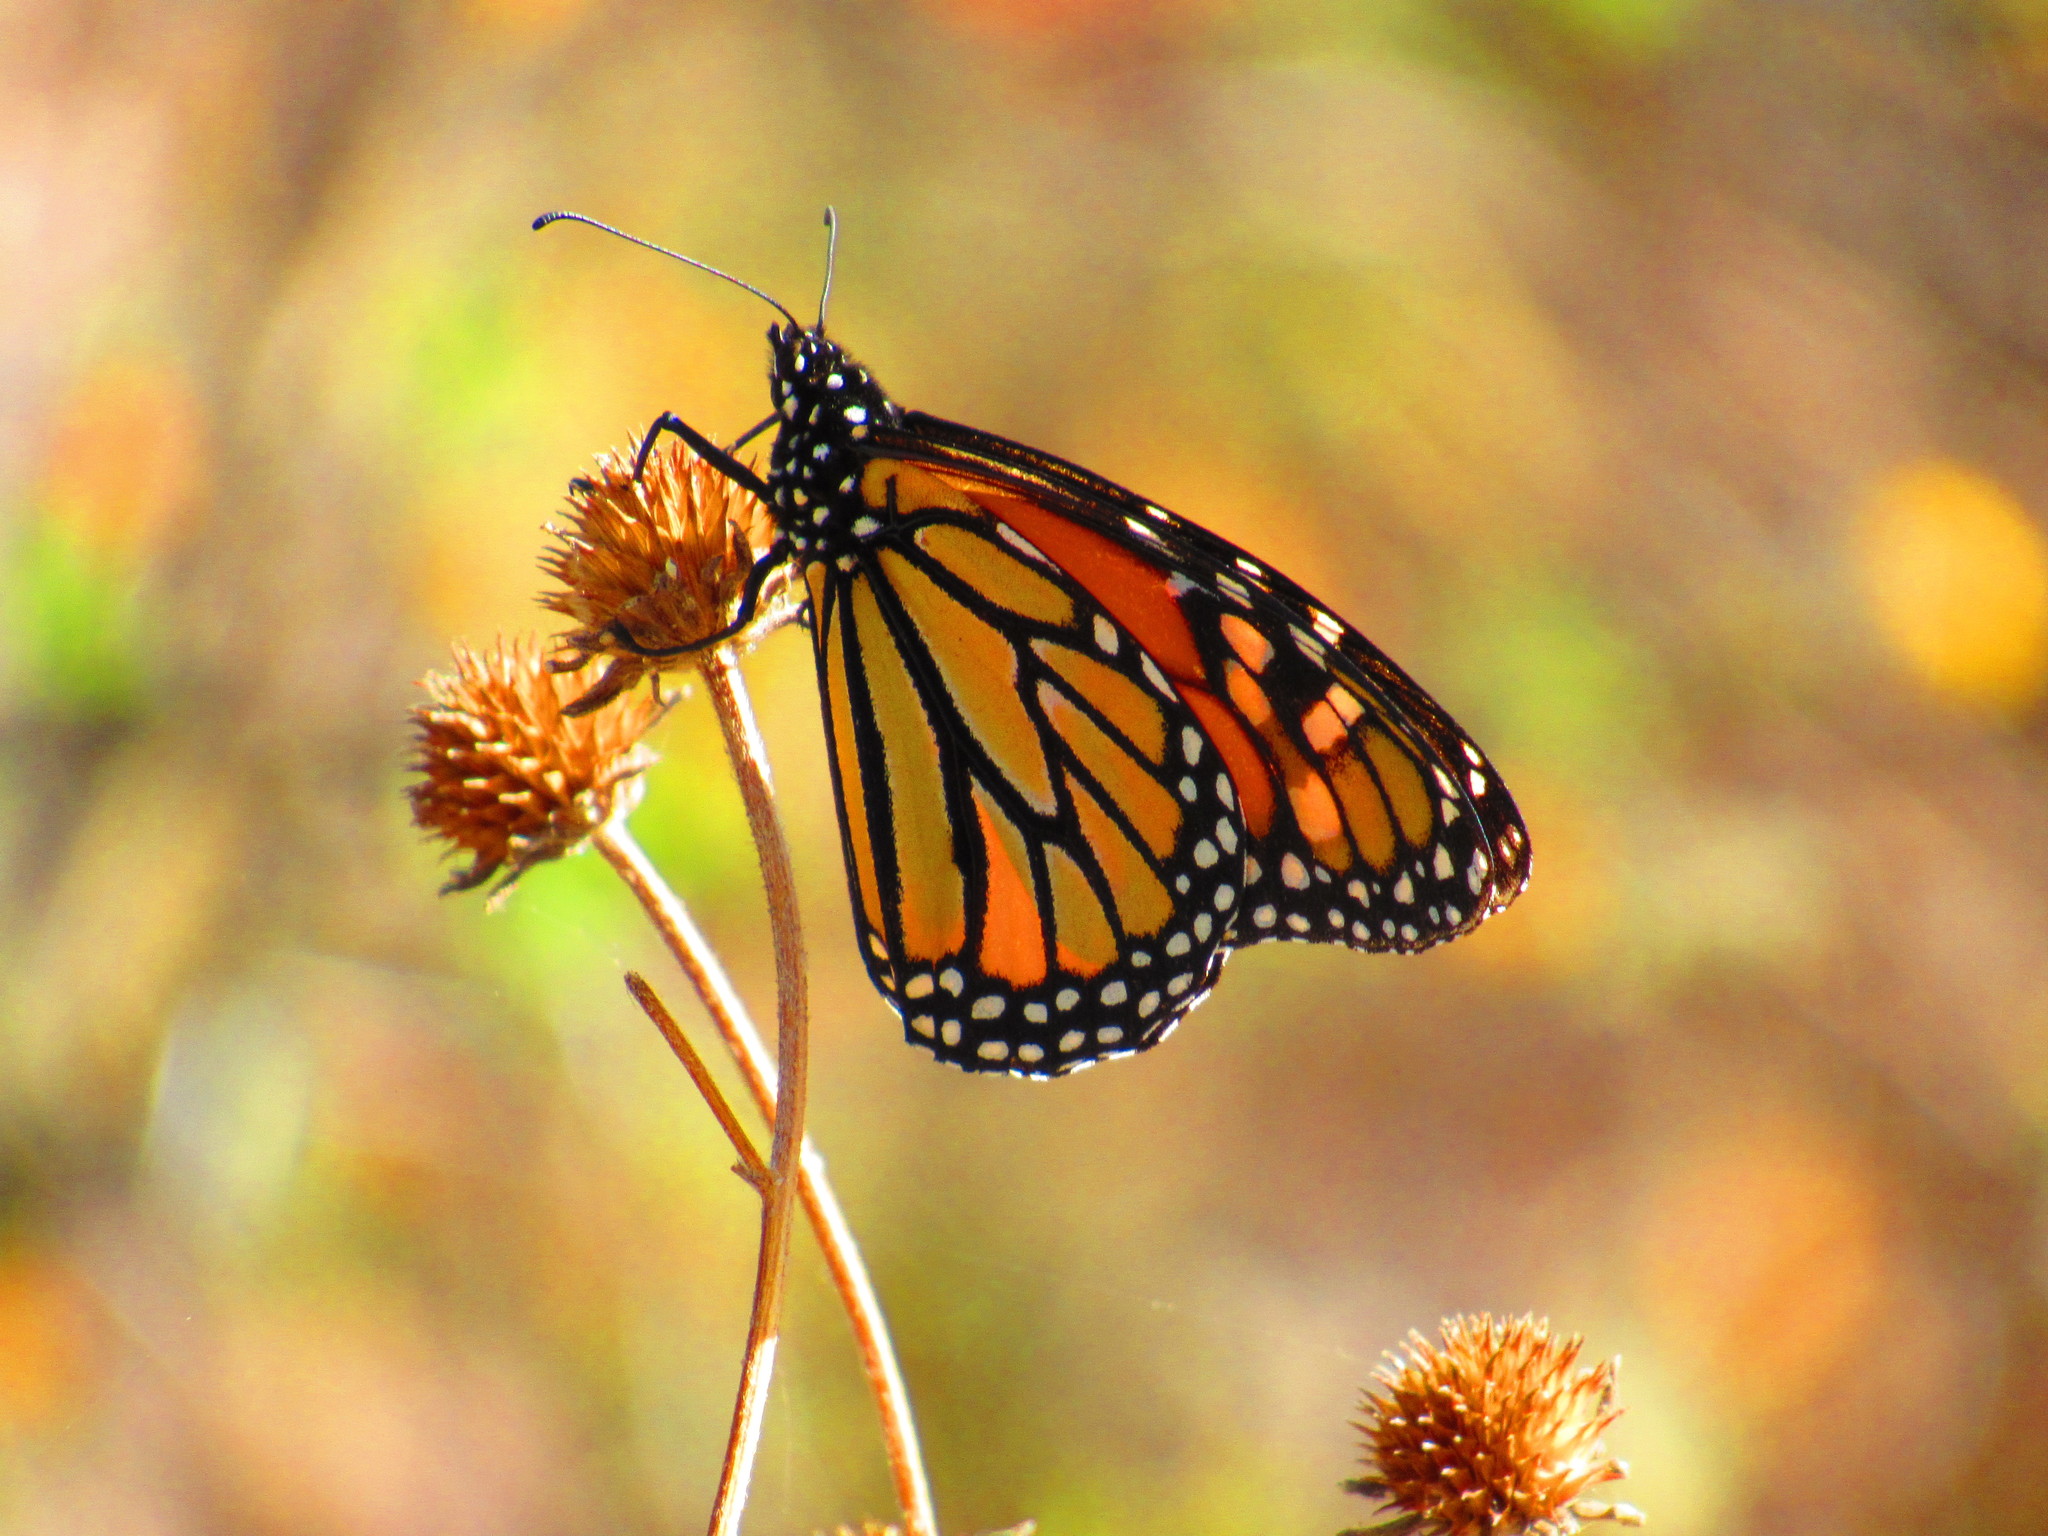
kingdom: Animalia
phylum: Arthropoda
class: Insecta
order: Lepidoptera
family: Nymphalidae
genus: Danaus
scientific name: Danaus plexippus
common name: Monarch
